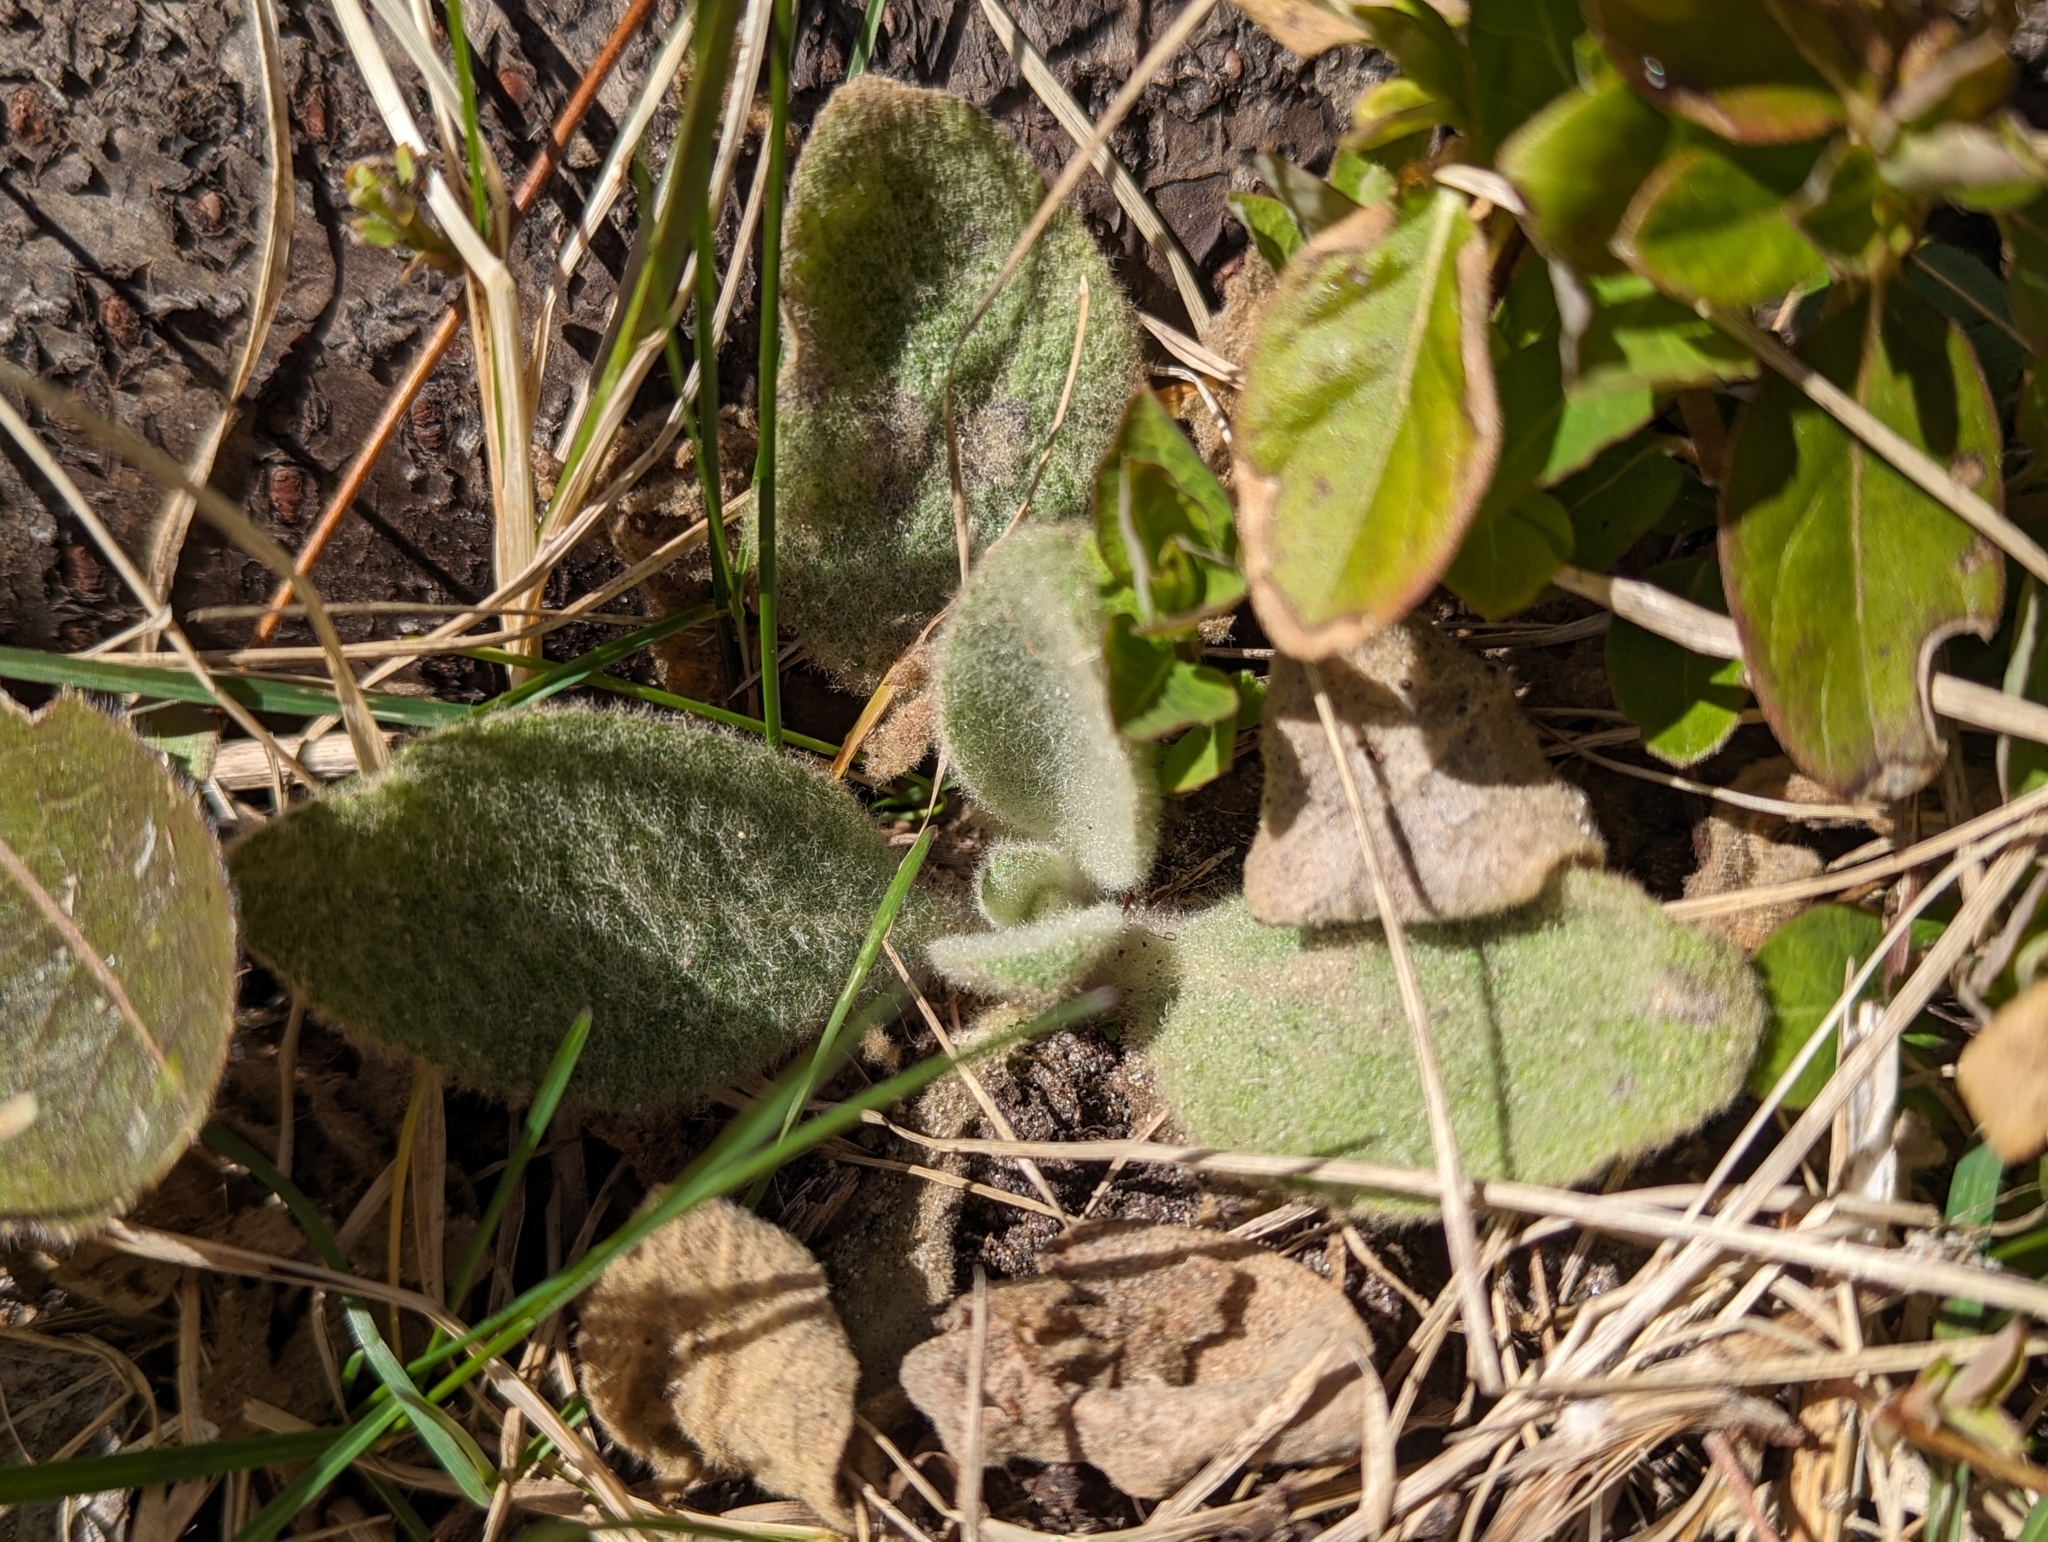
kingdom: Plantae
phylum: Tracheophyta
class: Magnoliopsida
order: Lamiales
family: Scrophulariaceae
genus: Verbascum
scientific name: Verbascum thapsus
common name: Common mullein
